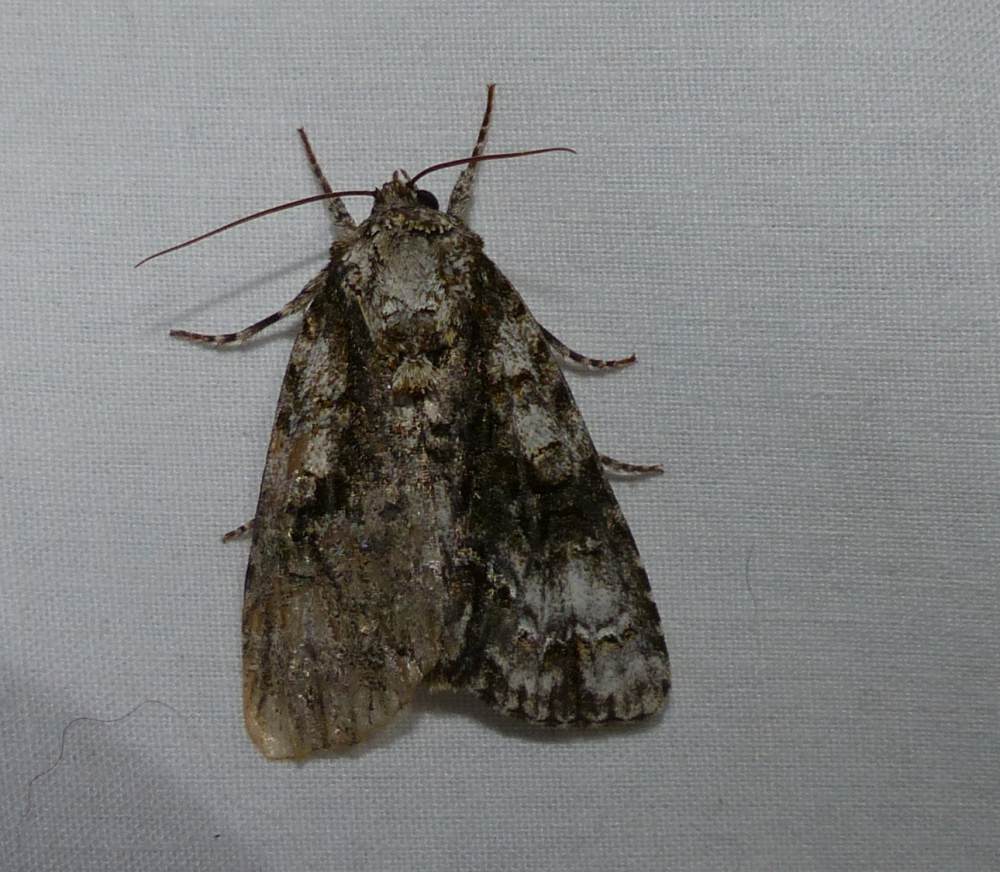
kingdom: Animalia
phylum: Arthropoda
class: Insecta
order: Lepidoptera
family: Noctuidae
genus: Acronicta
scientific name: Acronicta superans
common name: Splendid dagger
